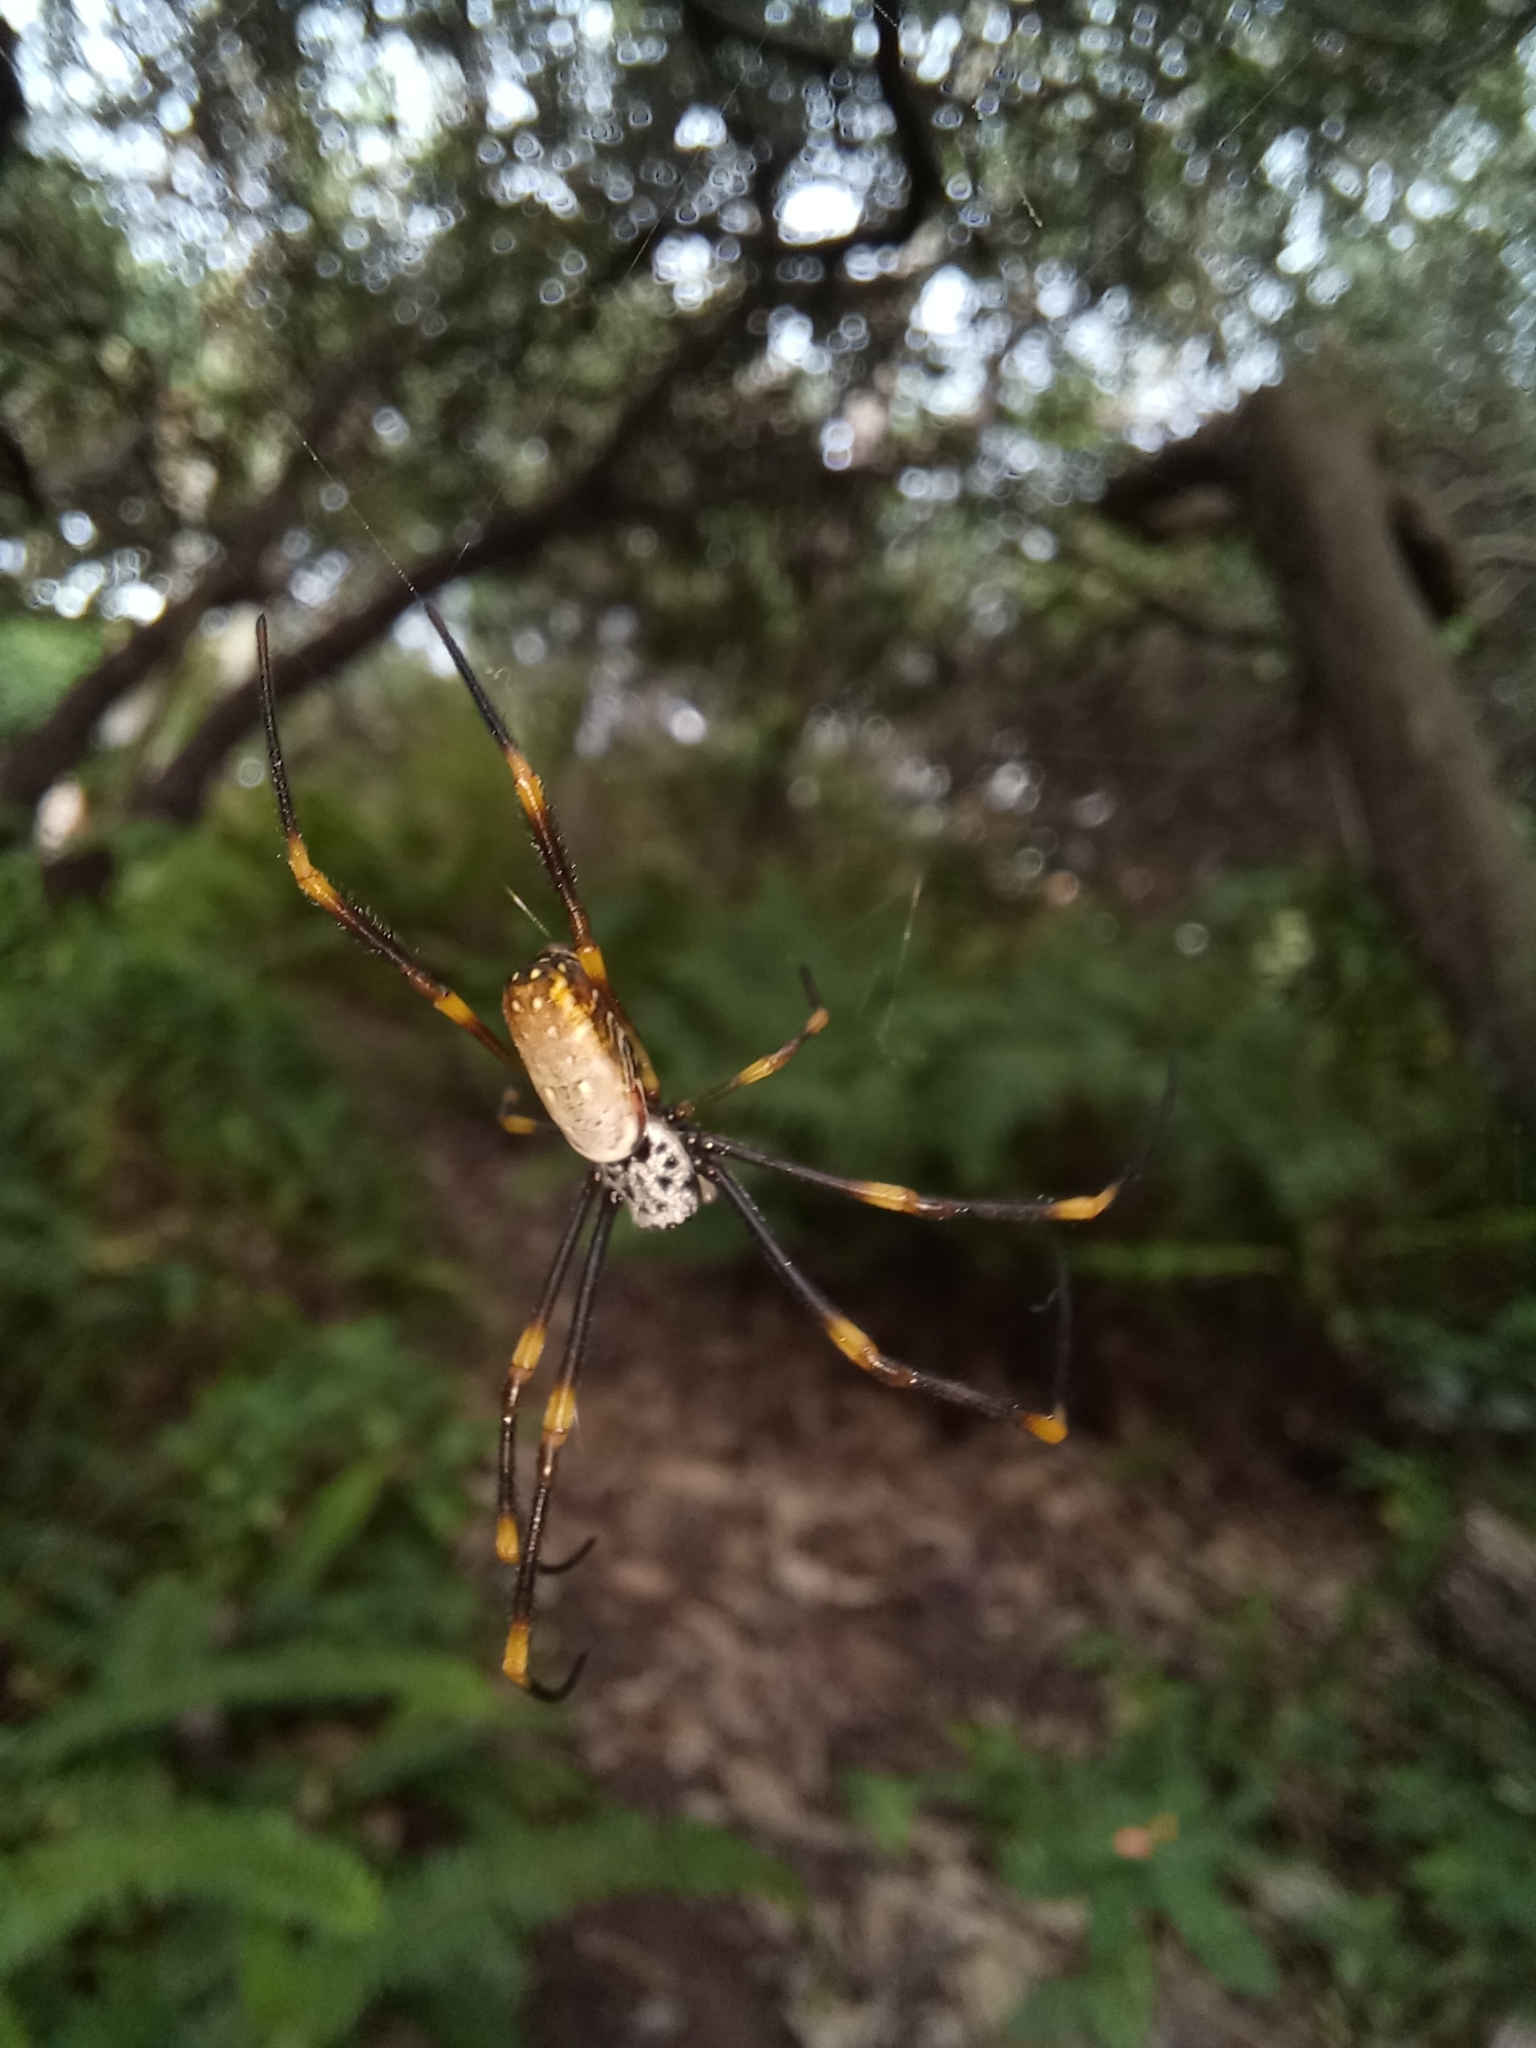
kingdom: Animalia
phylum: Arthropoda
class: Arachnida
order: Araneae
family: Araneidae
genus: Trichonephila
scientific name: Trichonephila plumipes
